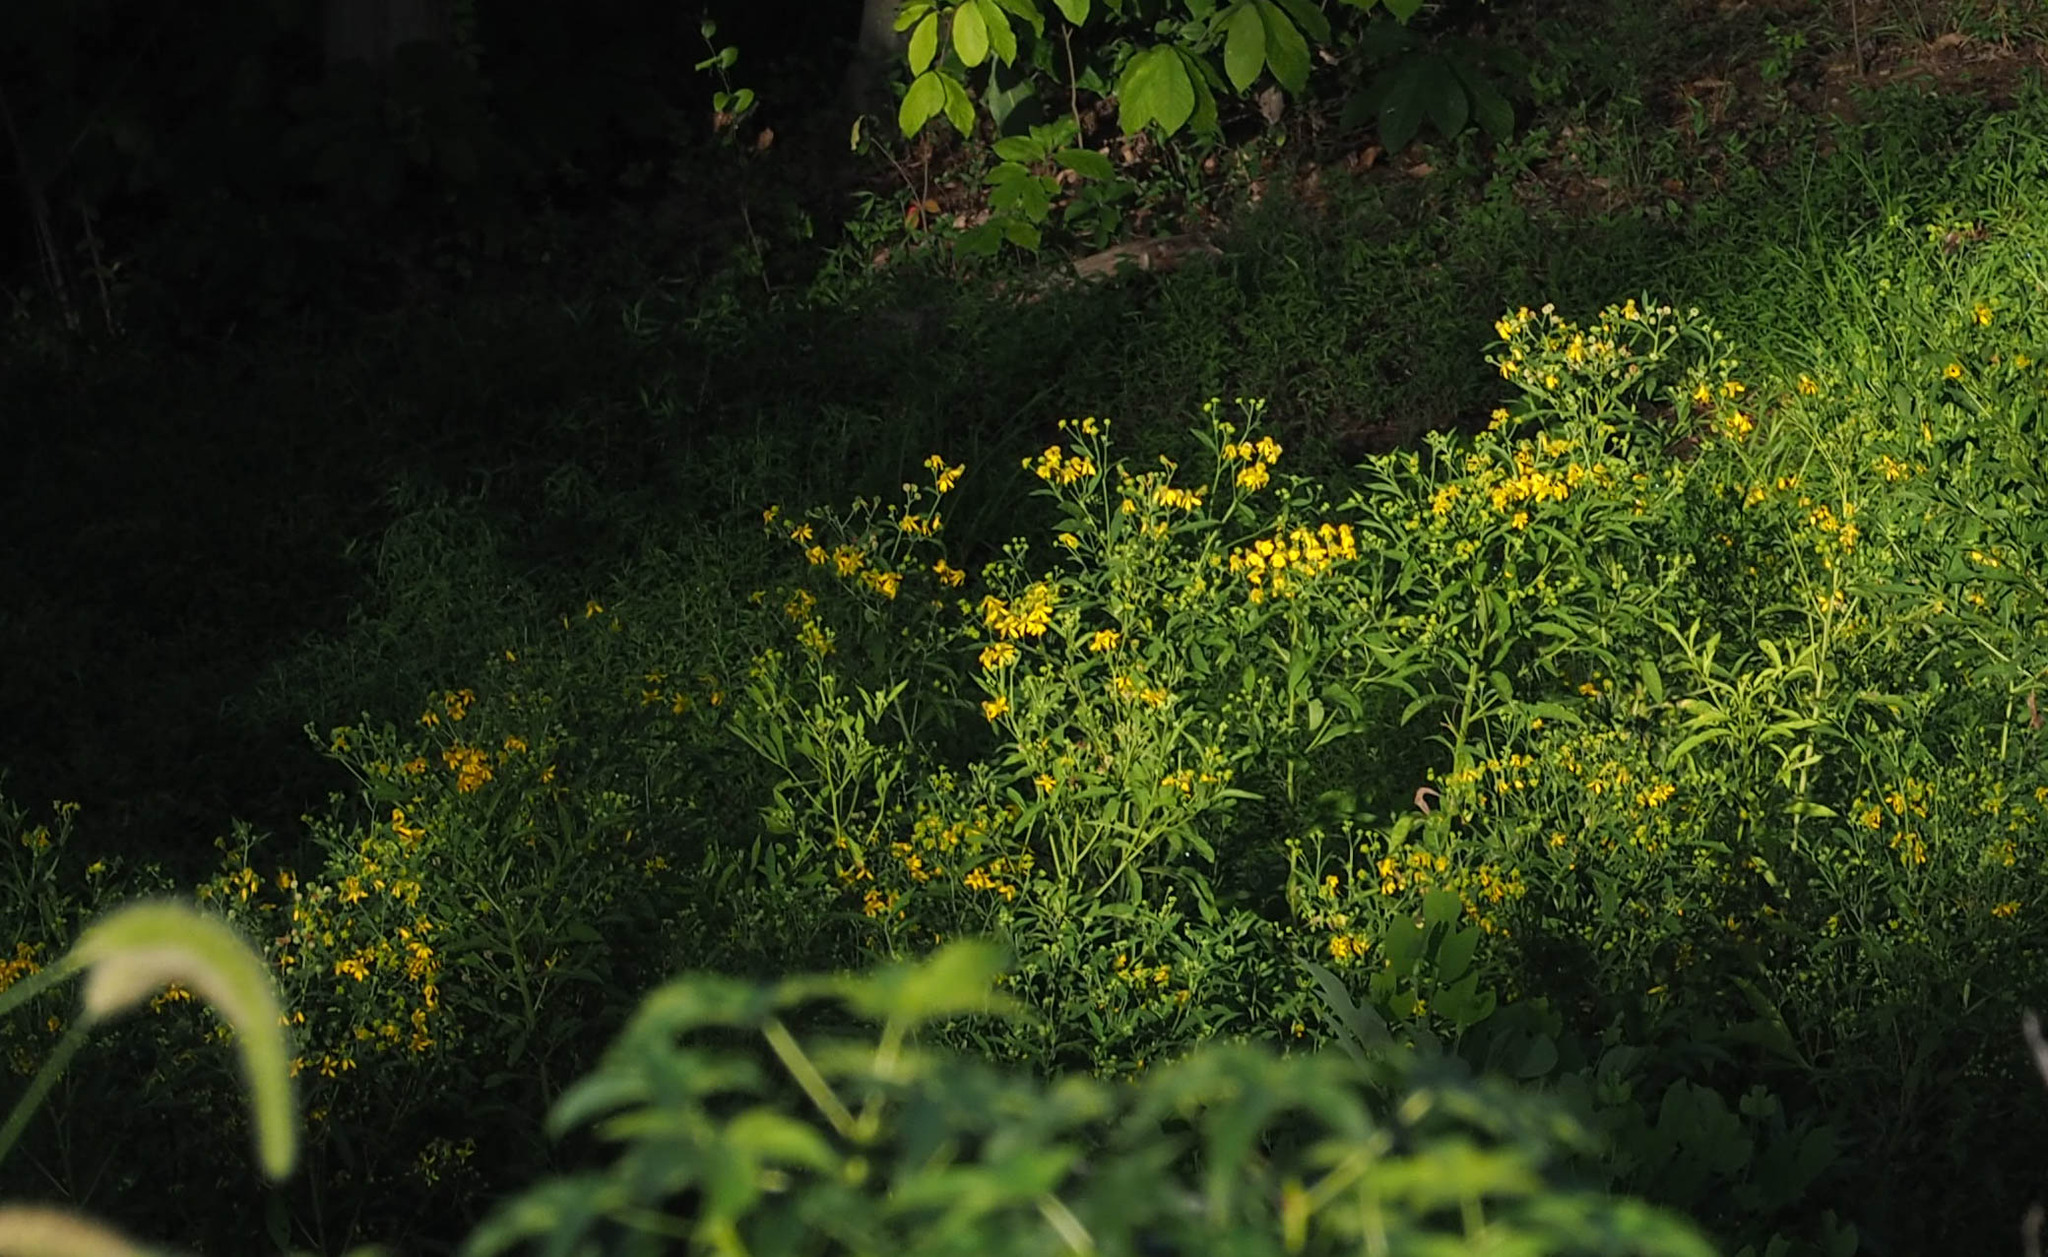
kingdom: Plantae
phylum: Tracheophyta
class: Magnoliopsida
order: Asterales
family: Asteraceae
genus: Verbesina
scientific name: Verbesina alternifolia
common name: Wingstem
